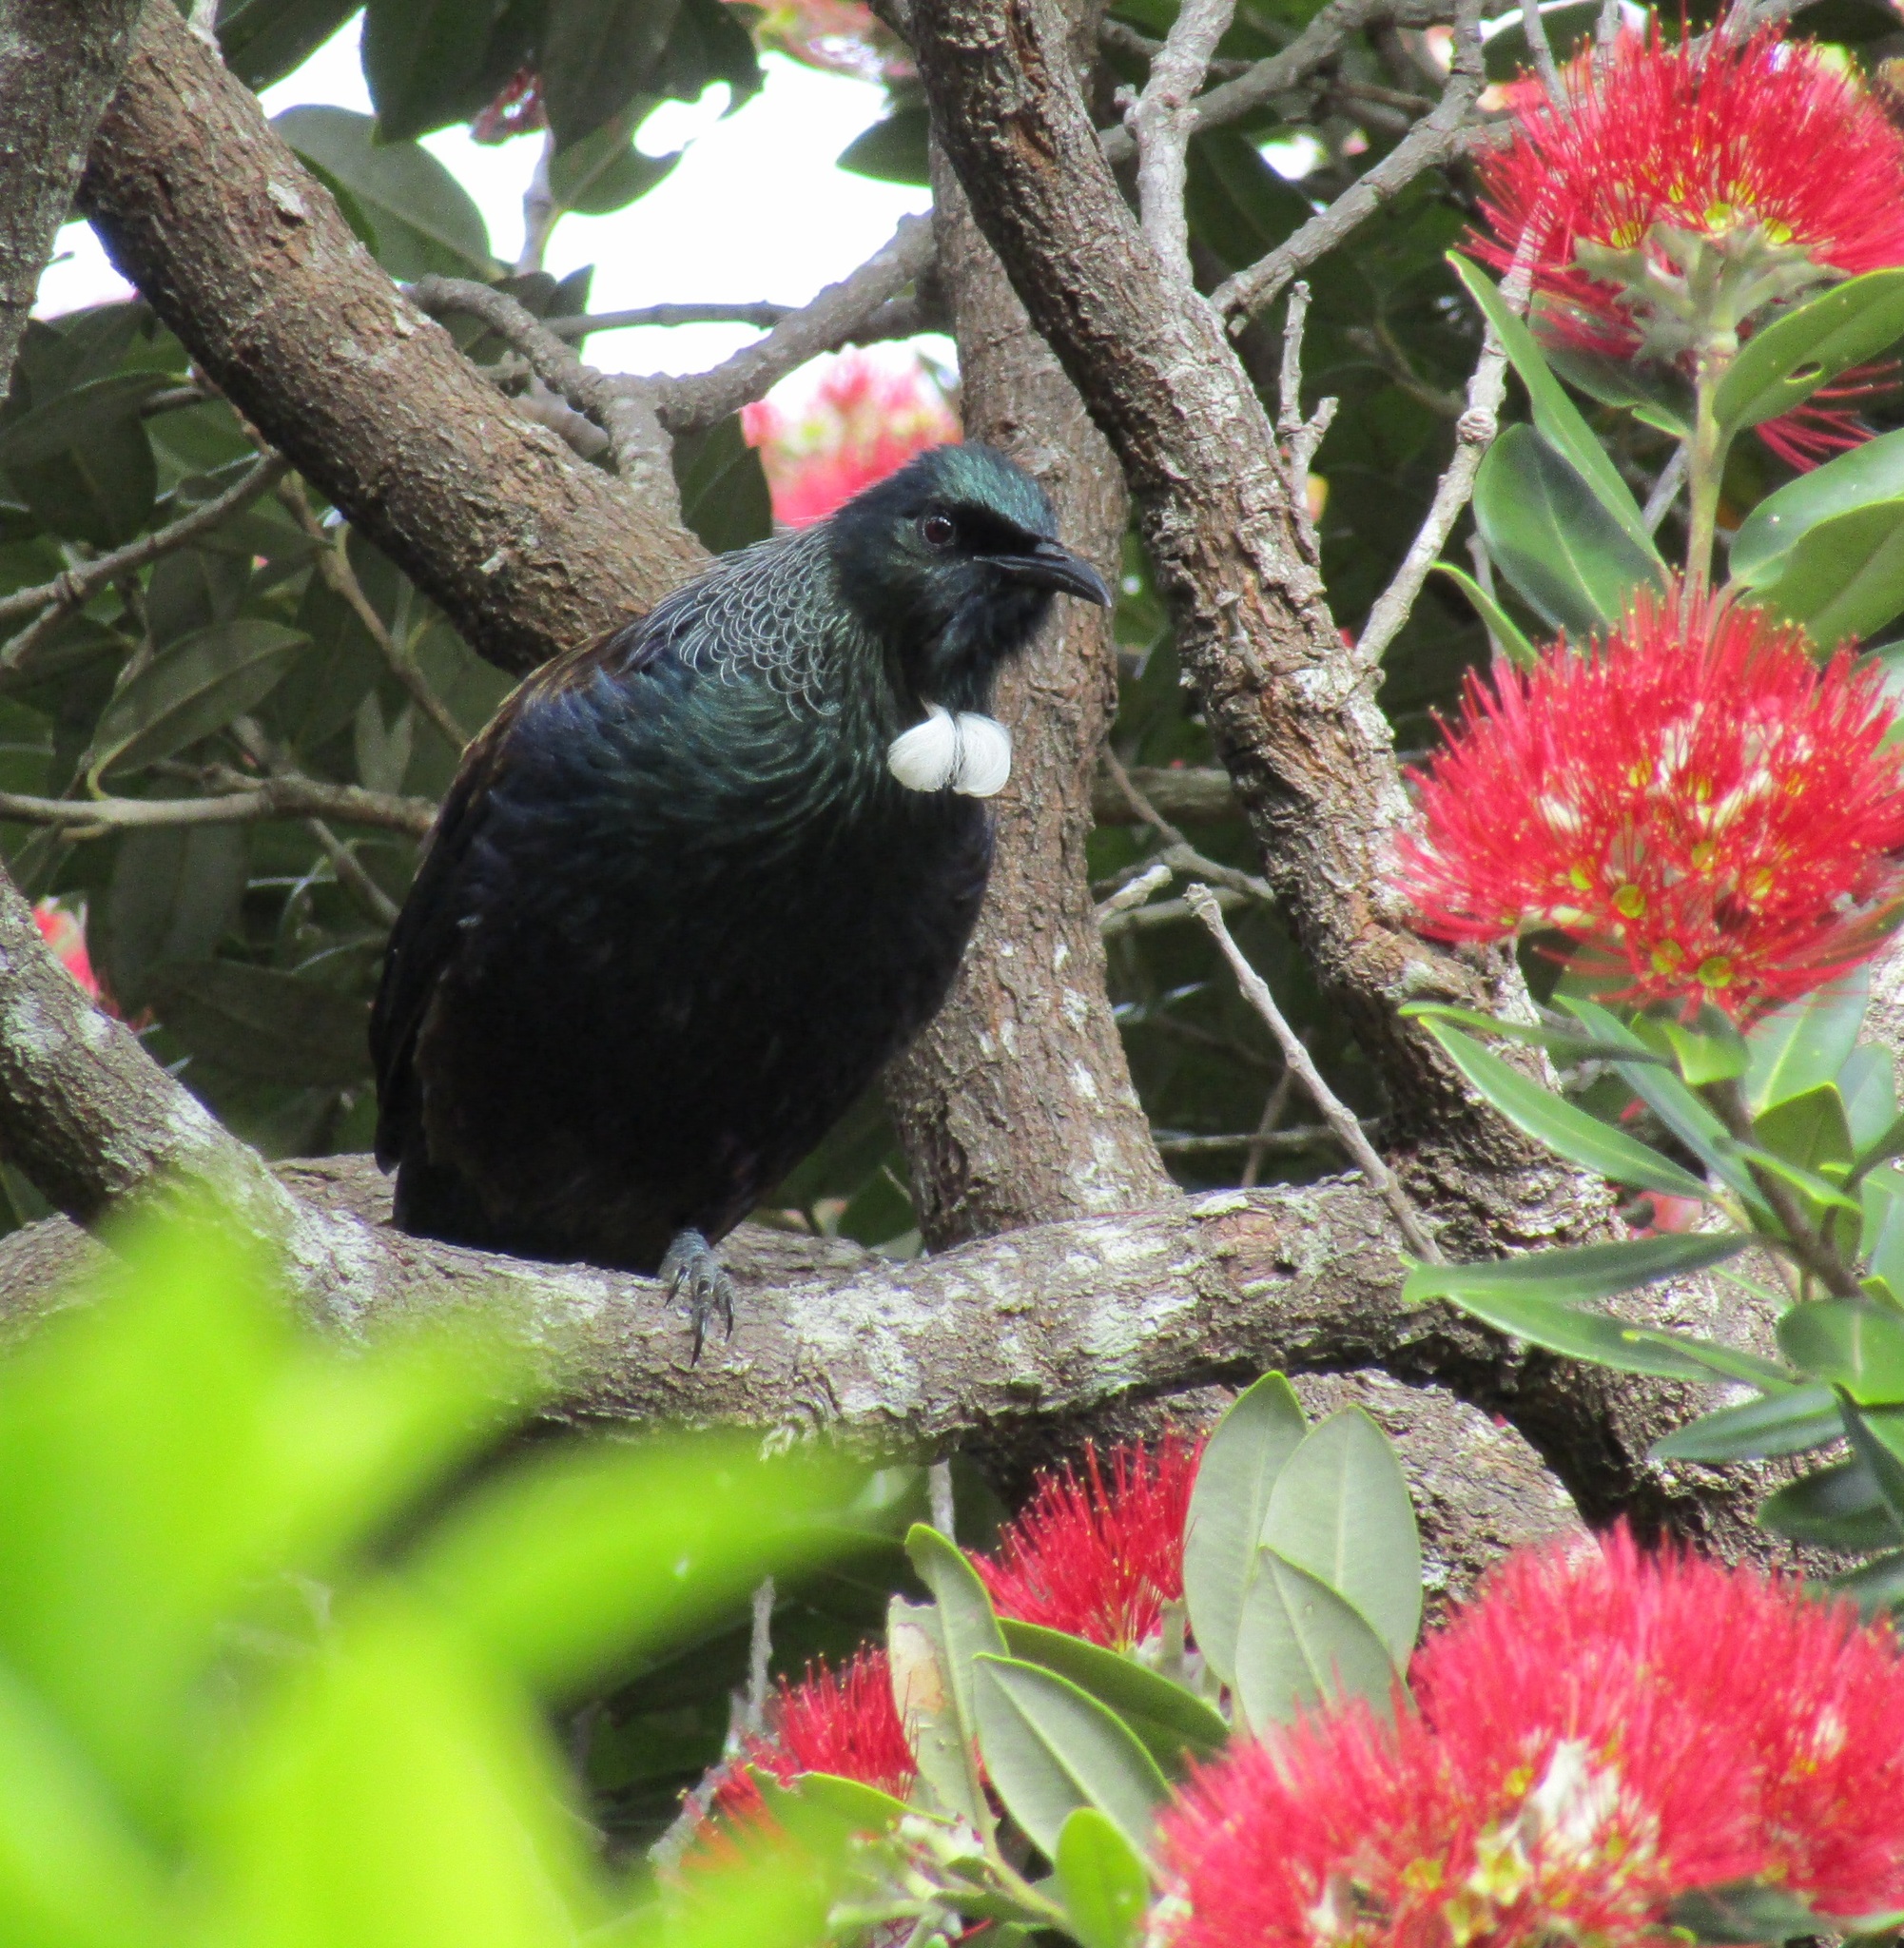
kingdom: Animalia
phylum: Chordata
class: Aves
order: Passeriformes
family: Meliphagidae
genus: Prosthemadera
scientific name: Prosthemadera novaeseelandiae
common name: Tui
